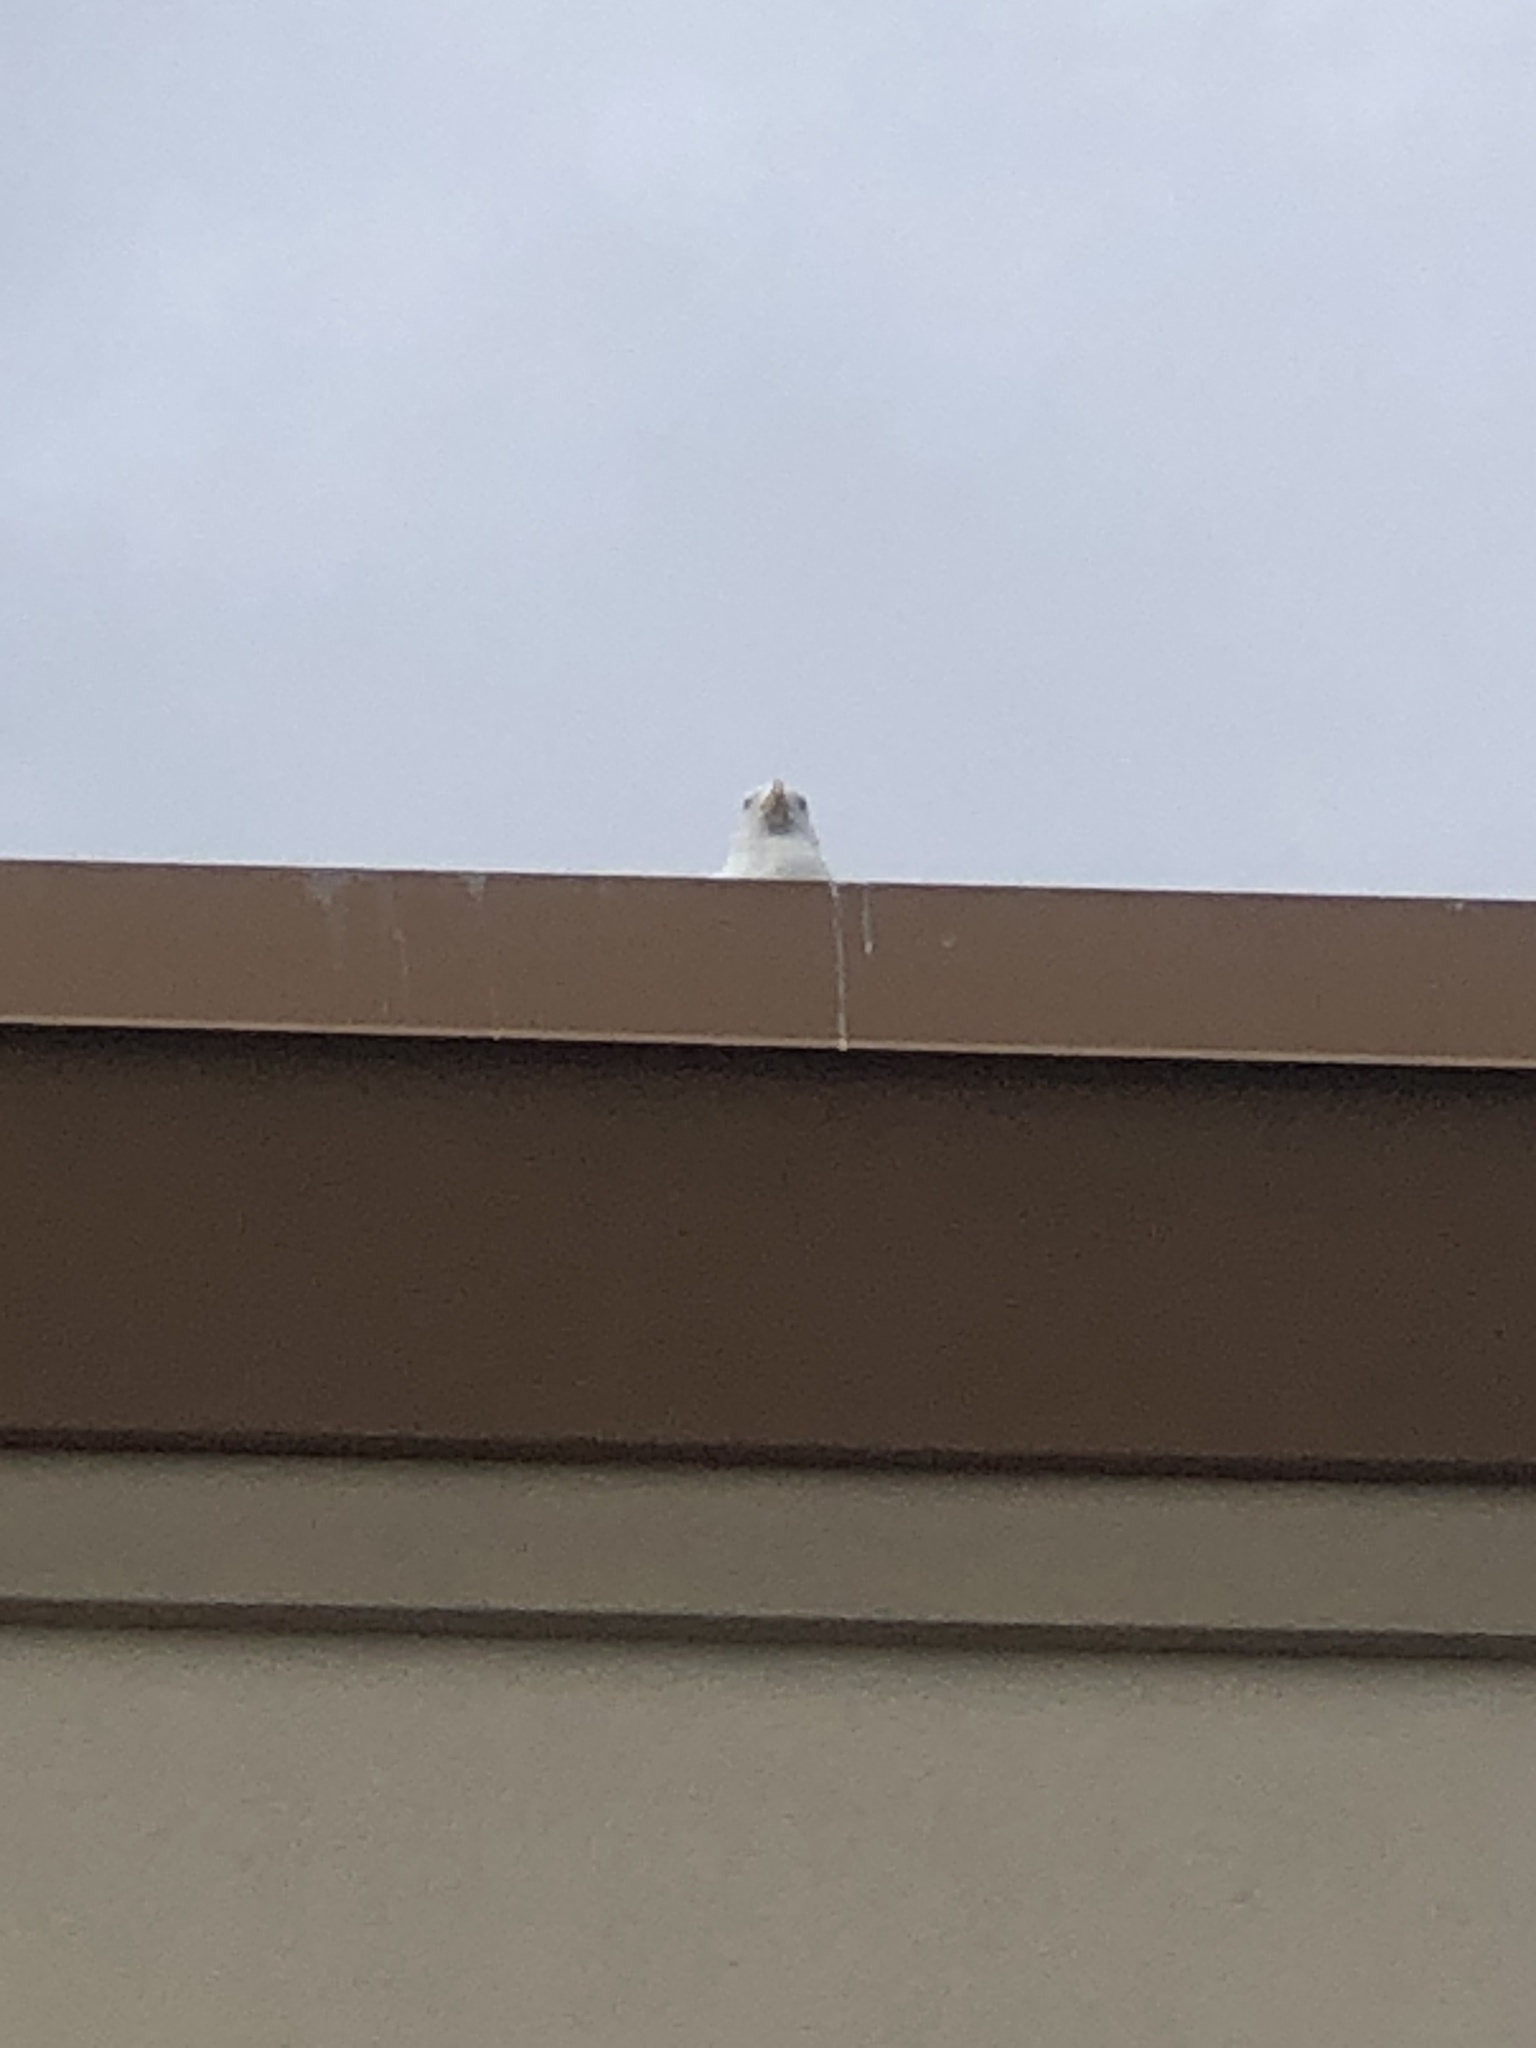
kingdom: Animalia
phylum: Chordata
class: Aves
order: Charadriiformes
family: Laridae
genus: Larus
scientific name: Larus
